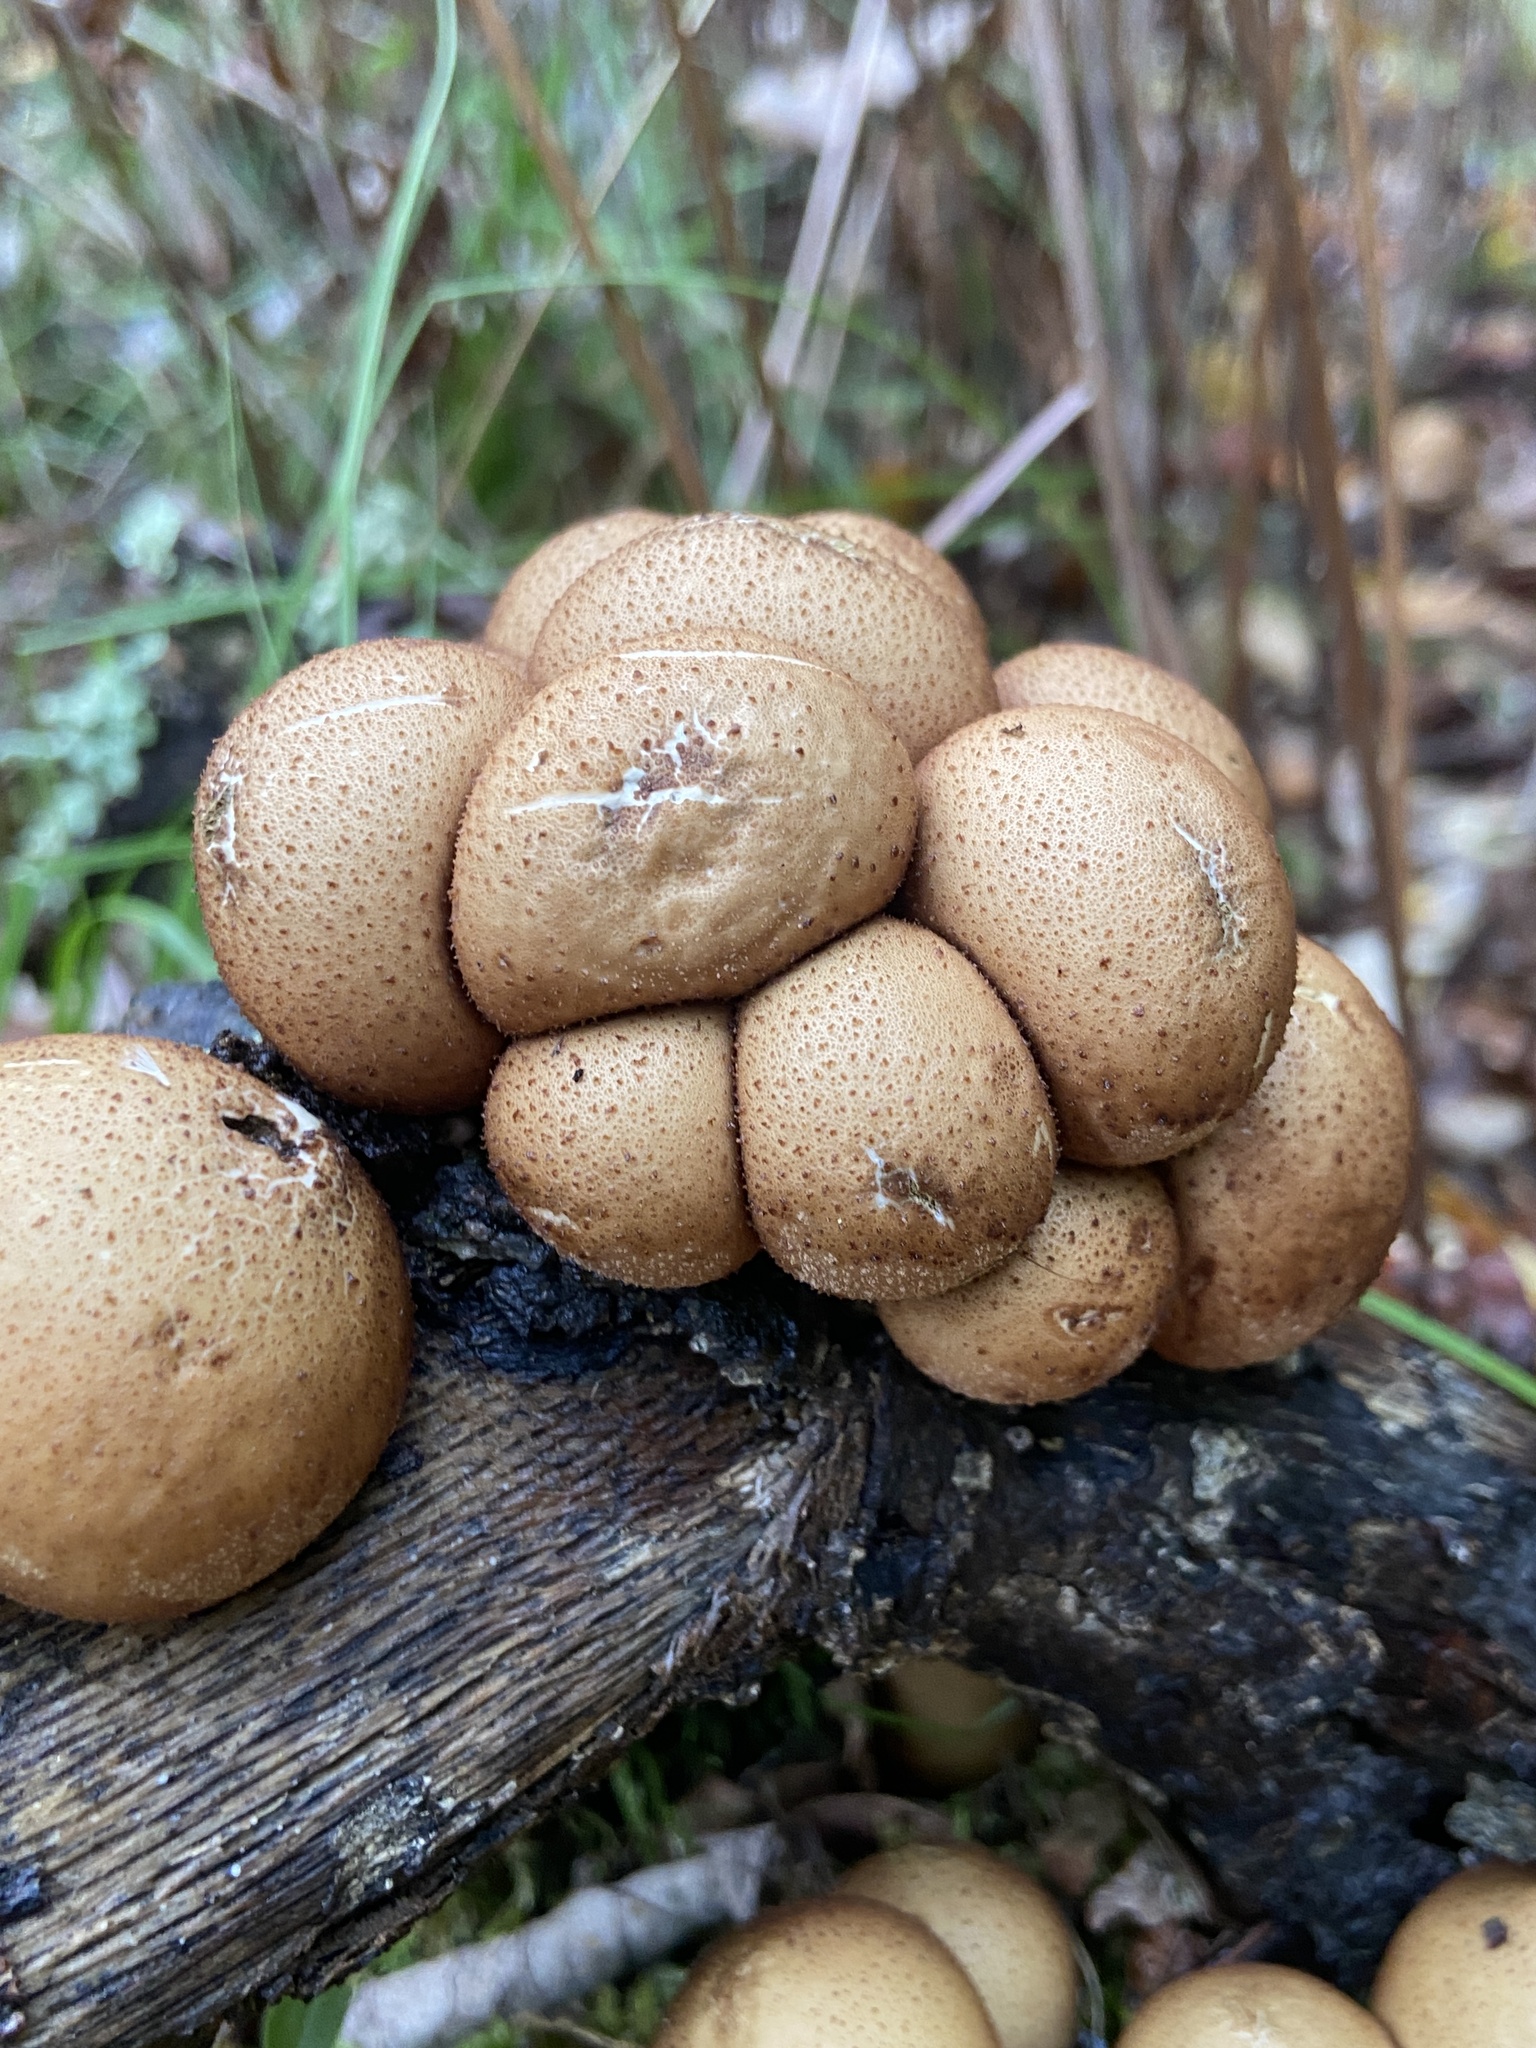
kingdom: Fungi
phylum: Basidiomycota
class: Agaricomycetes
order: Agaricales
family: Lycoperdaceae
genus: Apioperdon
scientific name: Apioperdon pyriforme
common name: Pear-shaped puffball
